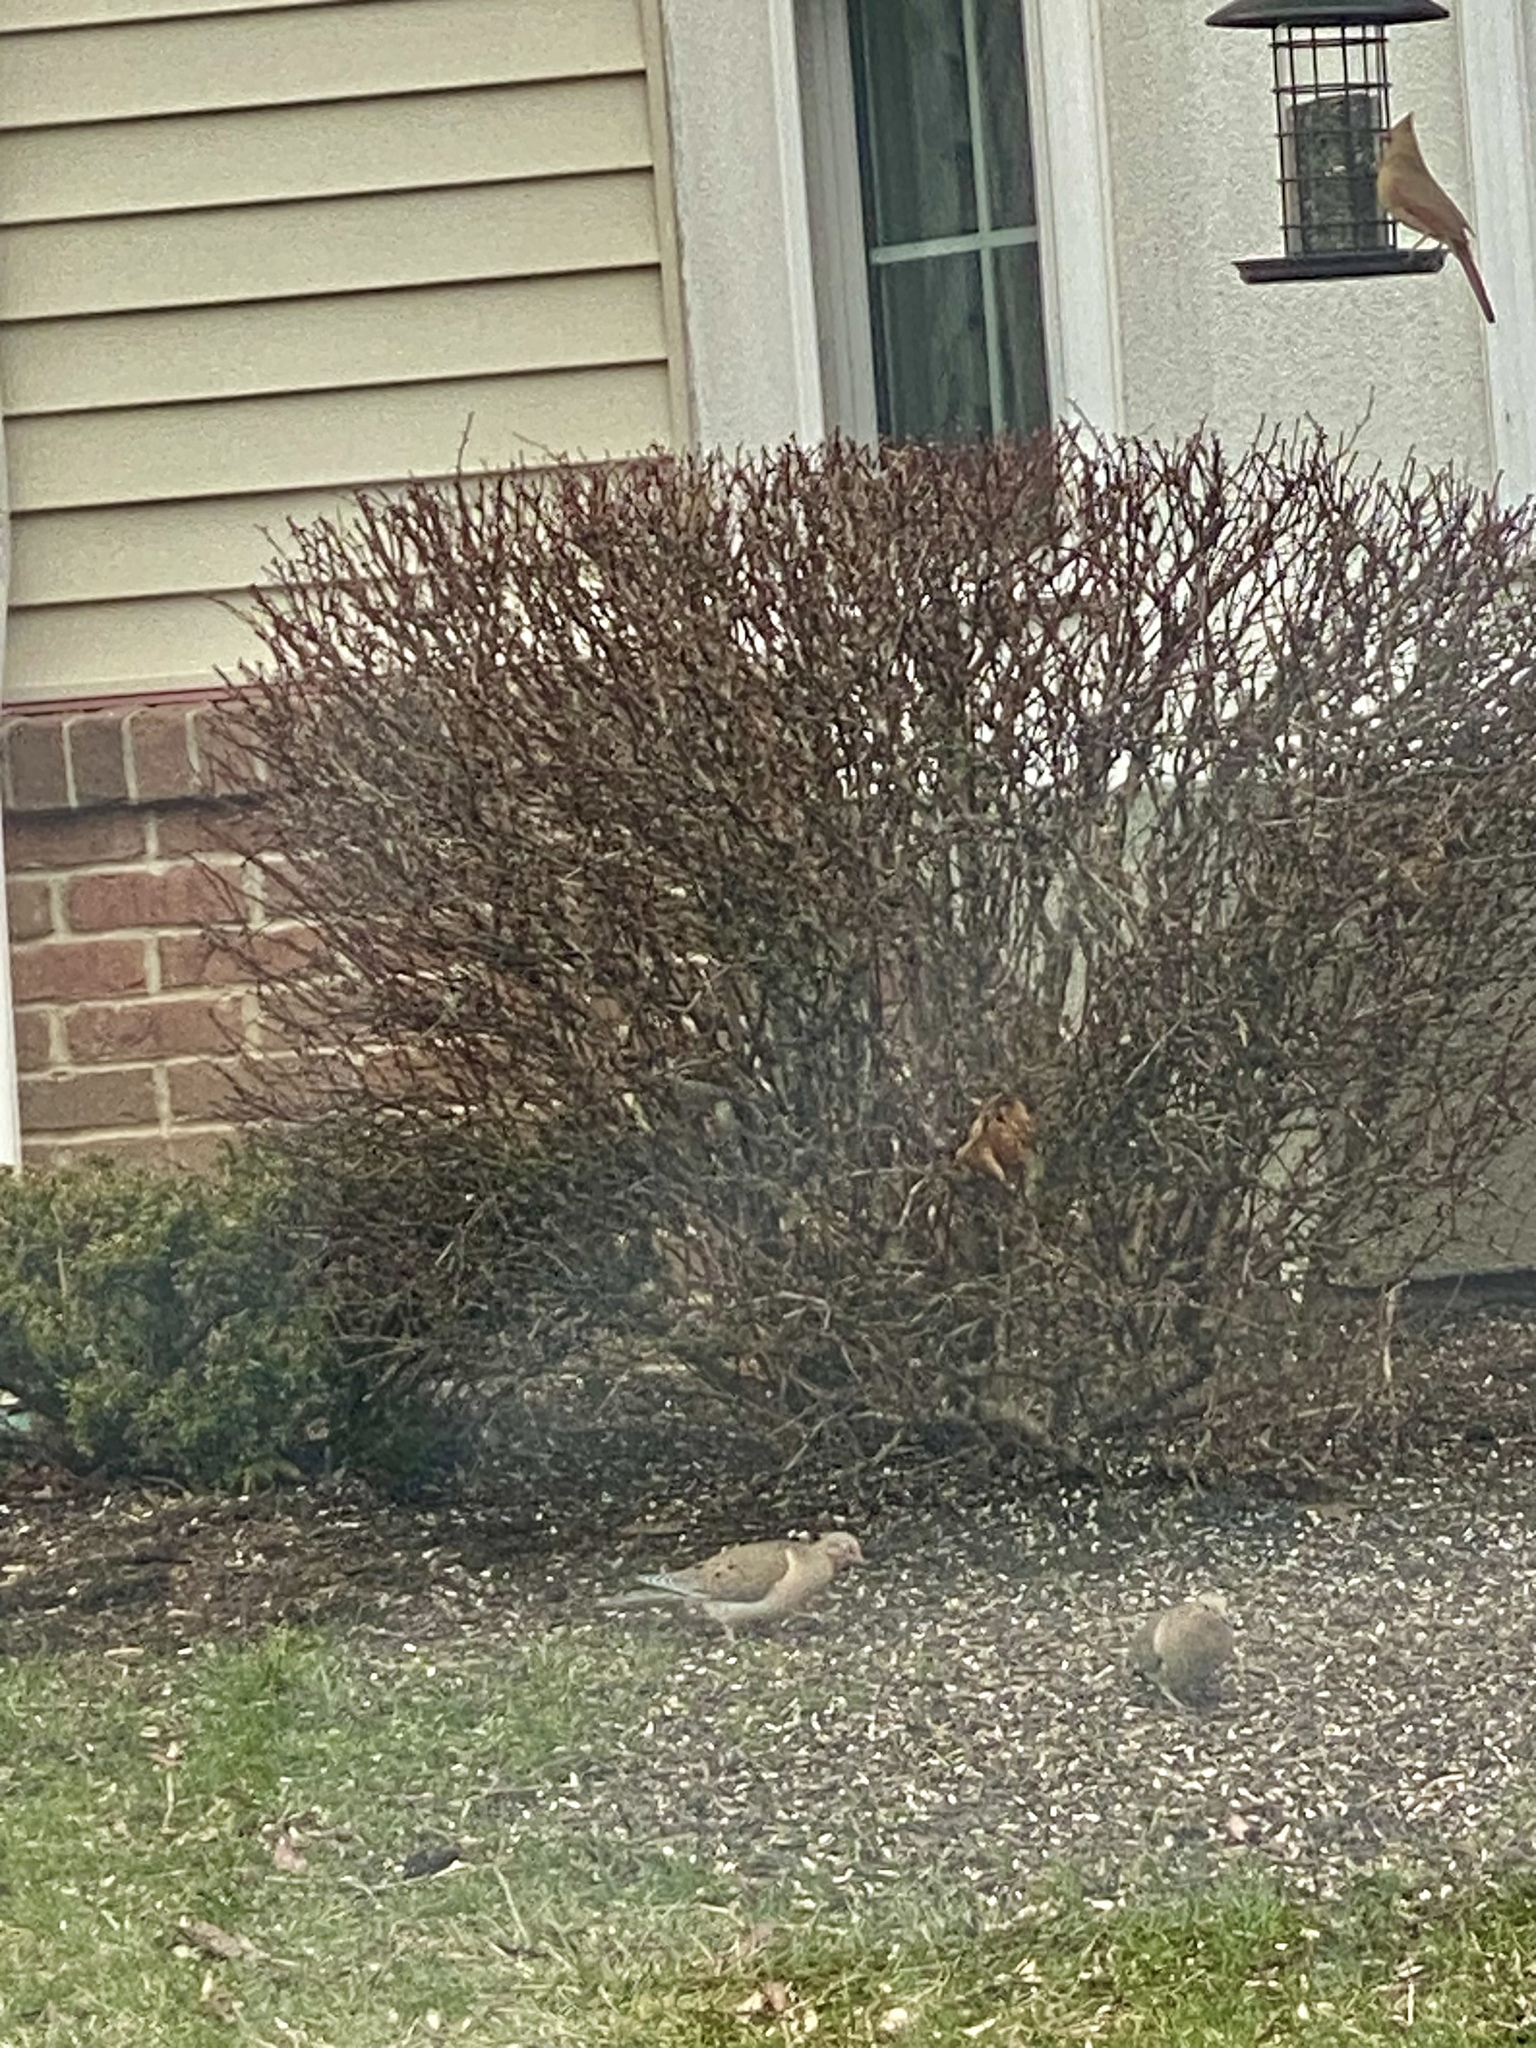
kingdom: Animalia
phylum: Chordata
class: Aves
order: Columbiformes
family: Columbidae
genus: Zenaida
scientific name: Zenaida macroura
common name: Mourning dove
